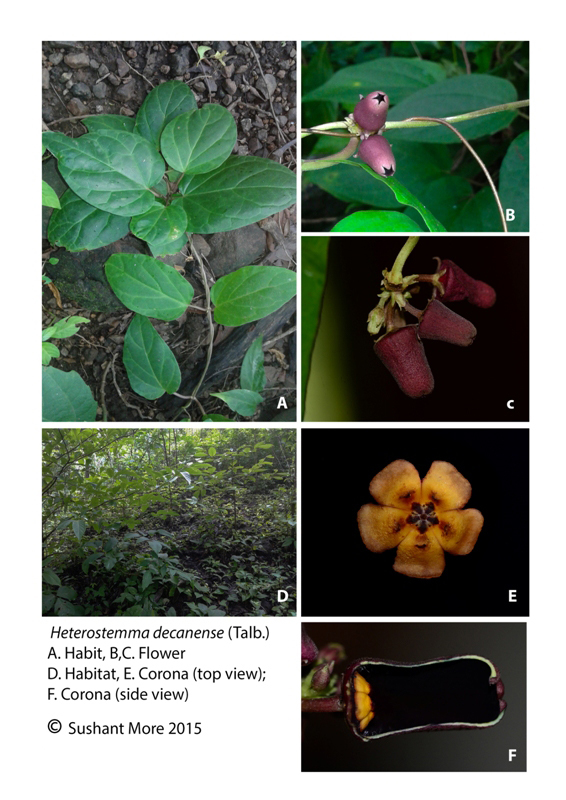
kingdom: Plantae
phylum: Tracheophyta
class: Magnoliopsida
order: Gentianales
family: Apocynaceae
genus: Heterostemma
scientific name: Heterostemma deccanense
